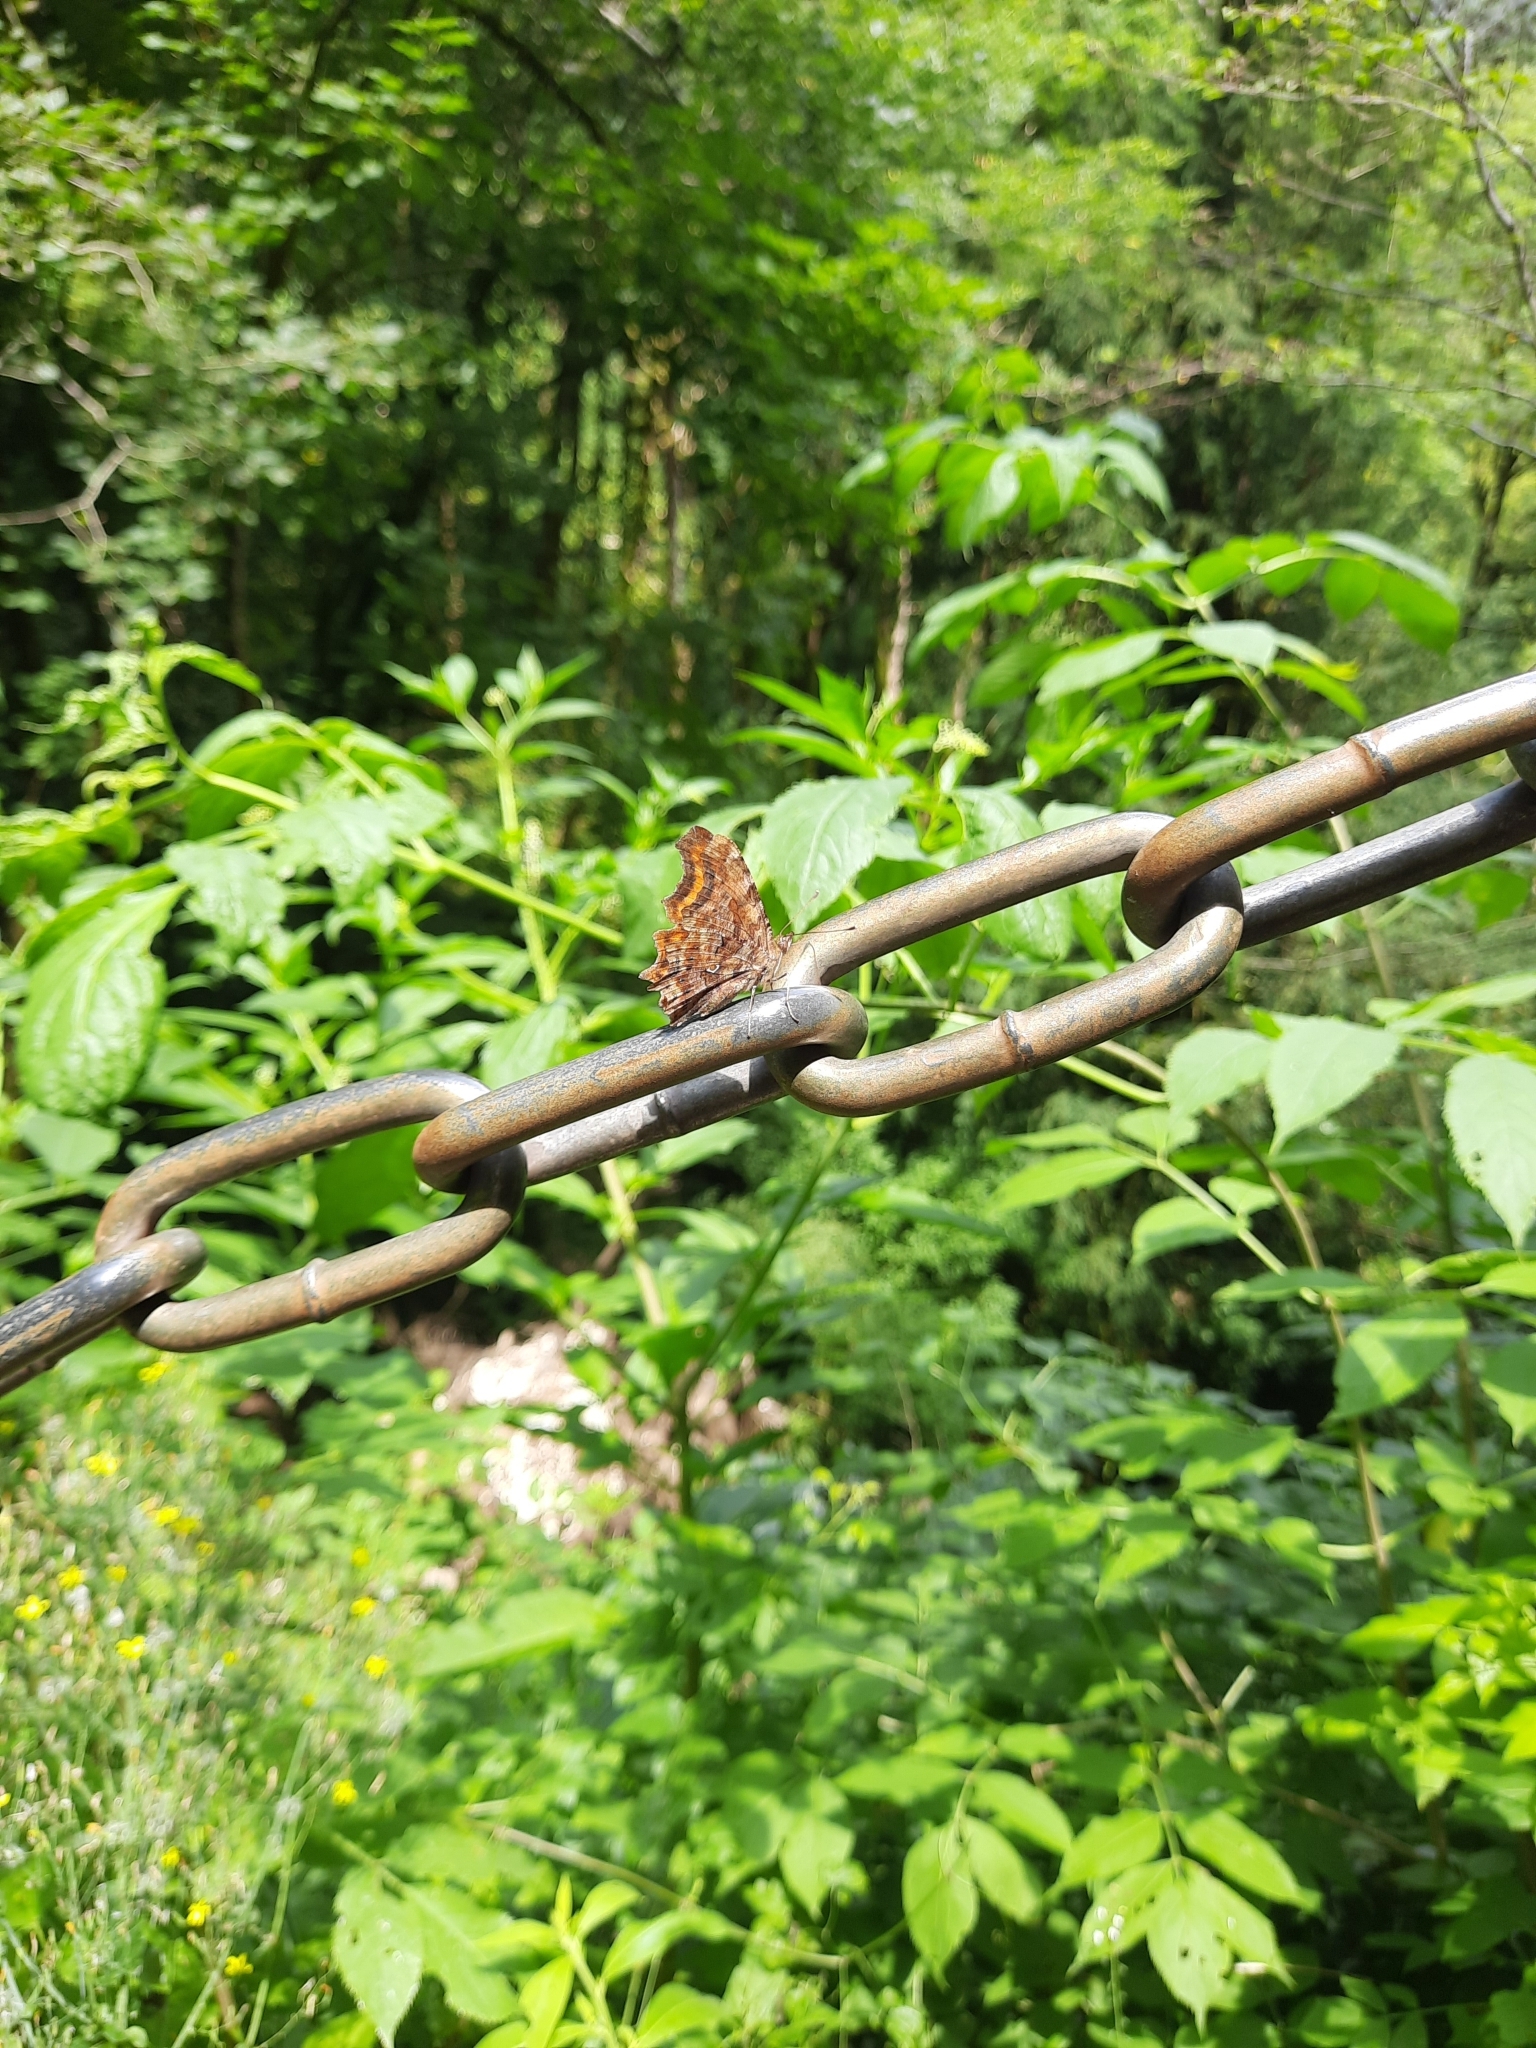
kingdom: Animalia
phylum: Arthropoda
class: Insecta
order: Lepidoptera
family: Nymphalidae
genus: Polygonia
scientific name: Polygonia c-album
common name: Comma
